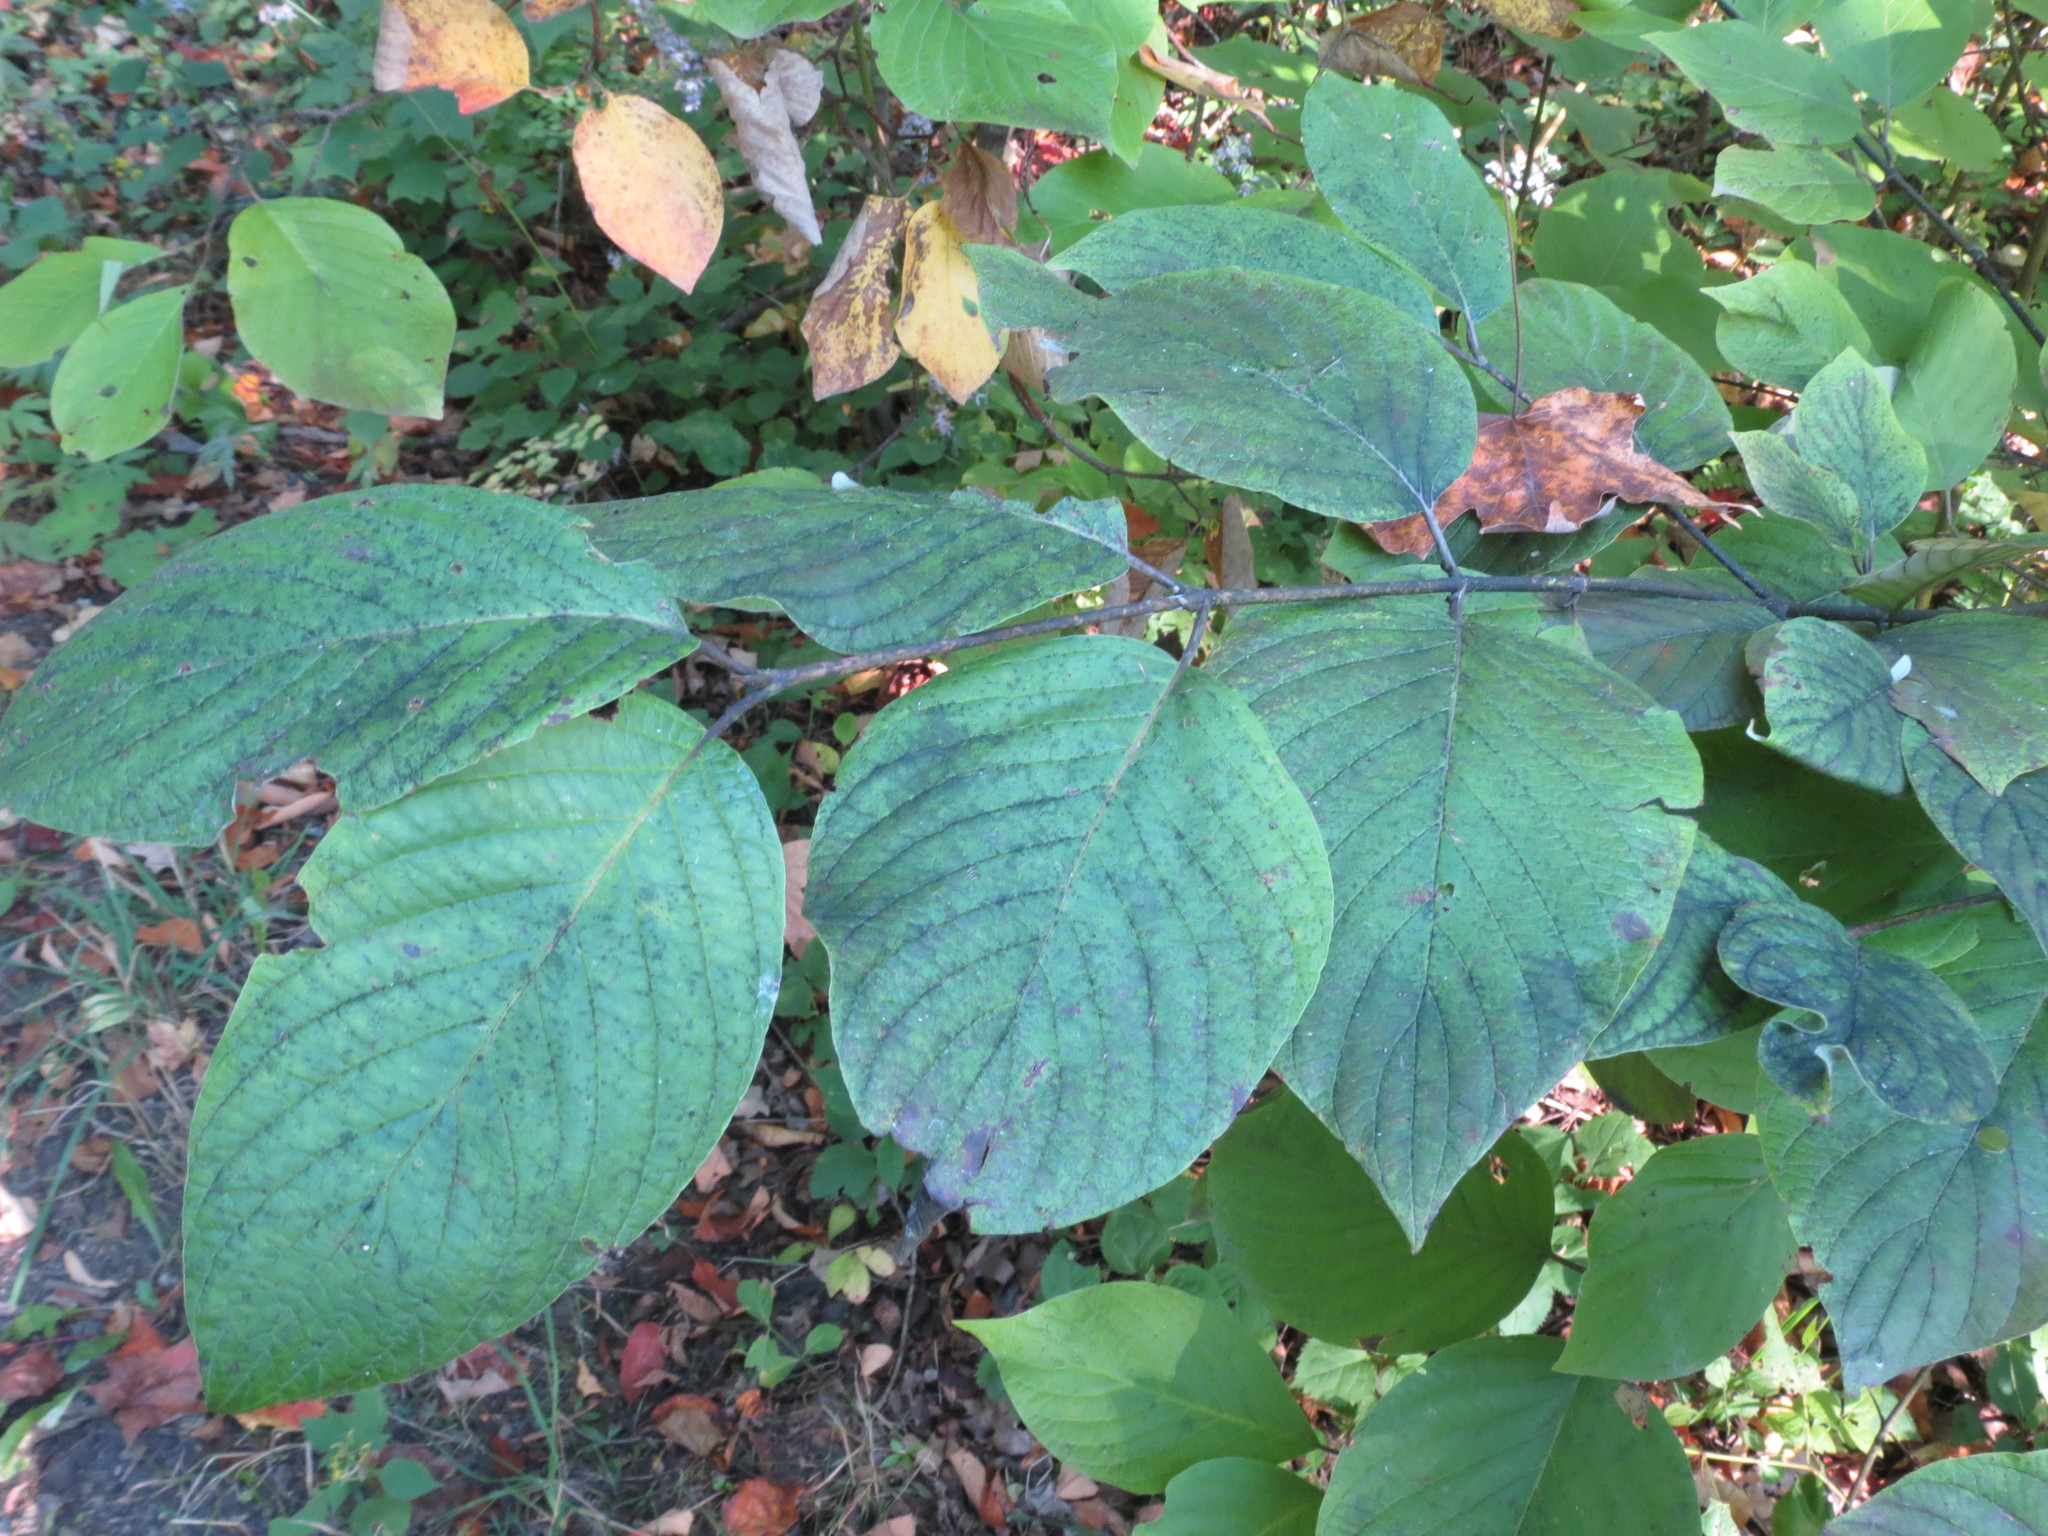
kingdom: Plantae
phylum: Tracheophyta
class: Magnoliopsida
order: Cornales
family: Cornaceae
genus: Cornus
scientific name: Cornus rugosa
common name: Round-leaf dogwood
